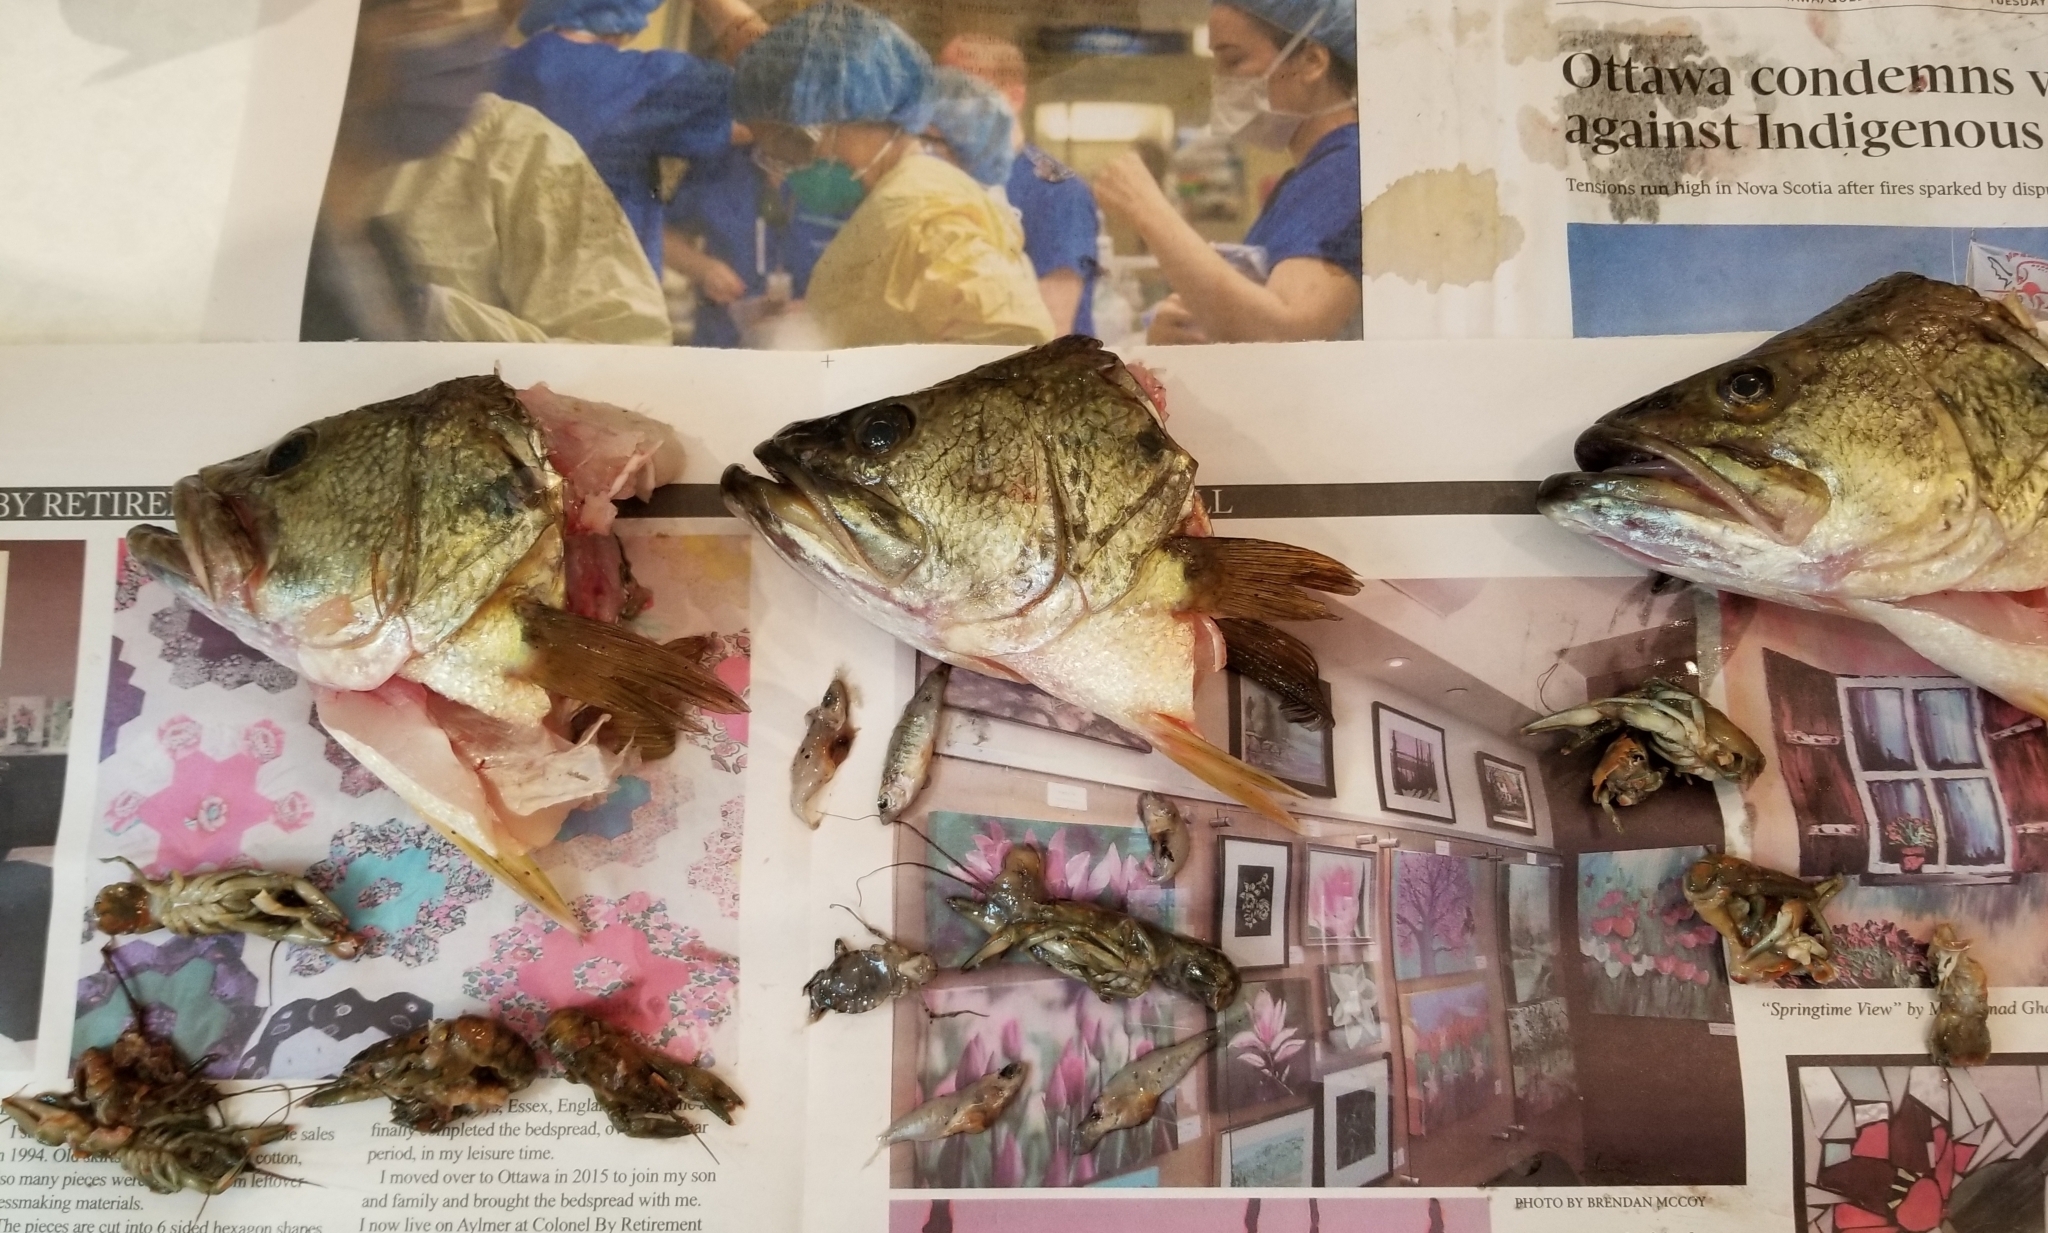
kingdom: Animalia
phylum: Chordata
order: Perciformes
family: Centrarchidae
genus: Micropterus
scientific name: Micropterus
